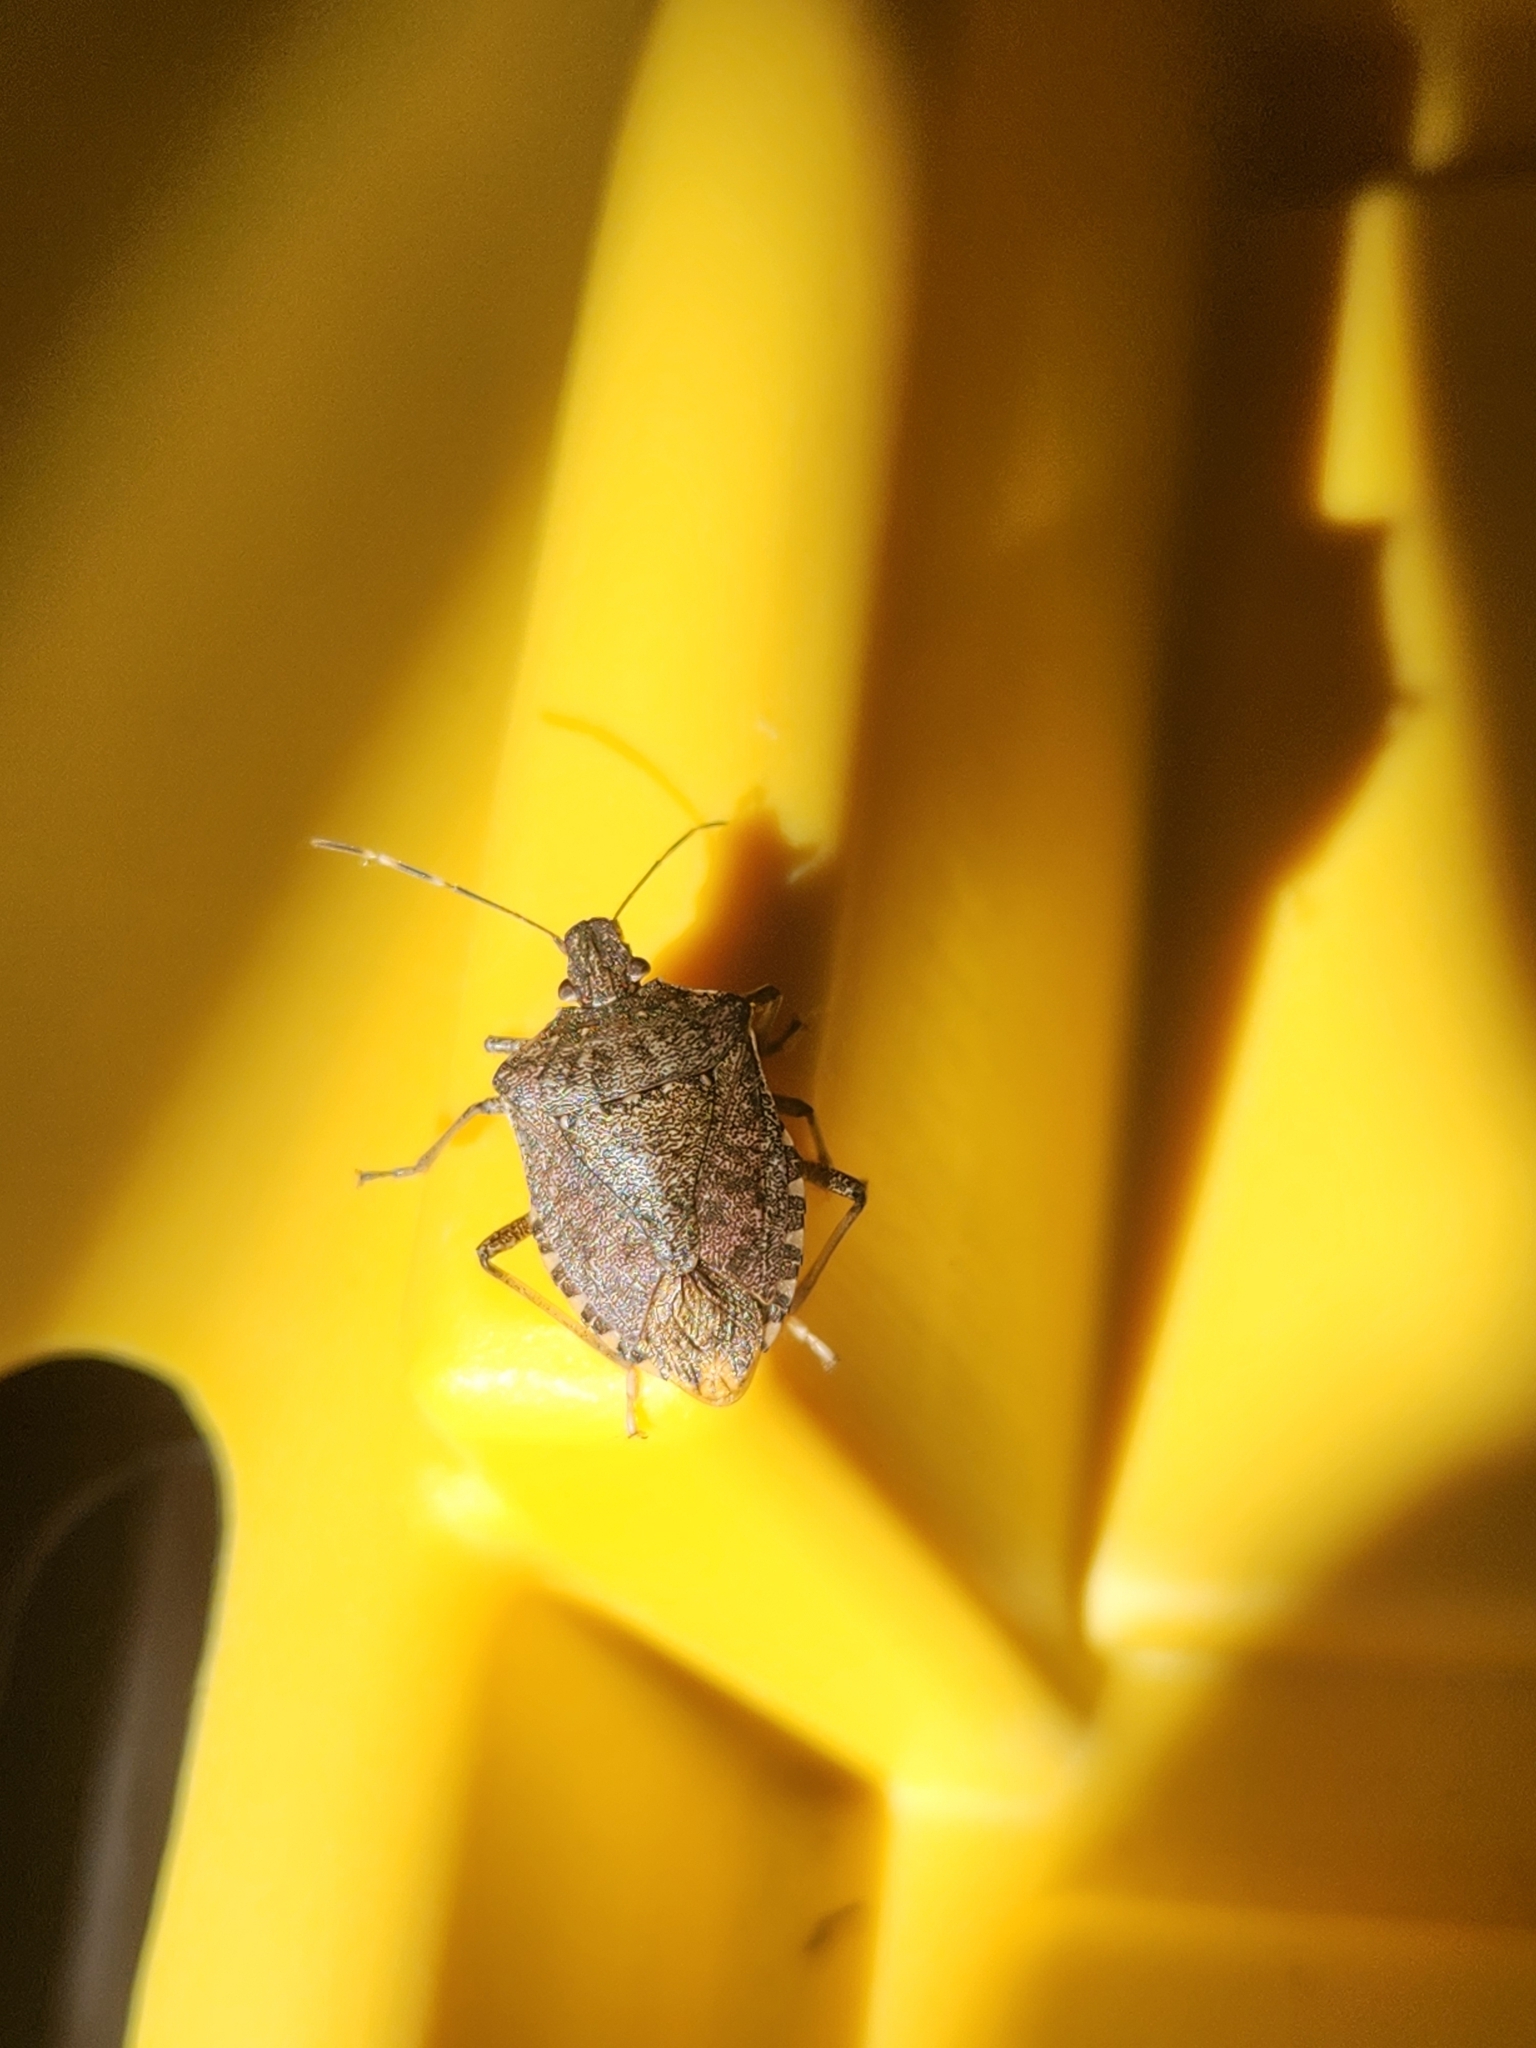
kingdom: Animalia
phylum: Arthropoda
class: Insecta
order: Hemiptera
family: Pentatomidae
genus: Halyomorpha
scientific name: Halyomorpha halys
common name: Brown marmorated stink bug
